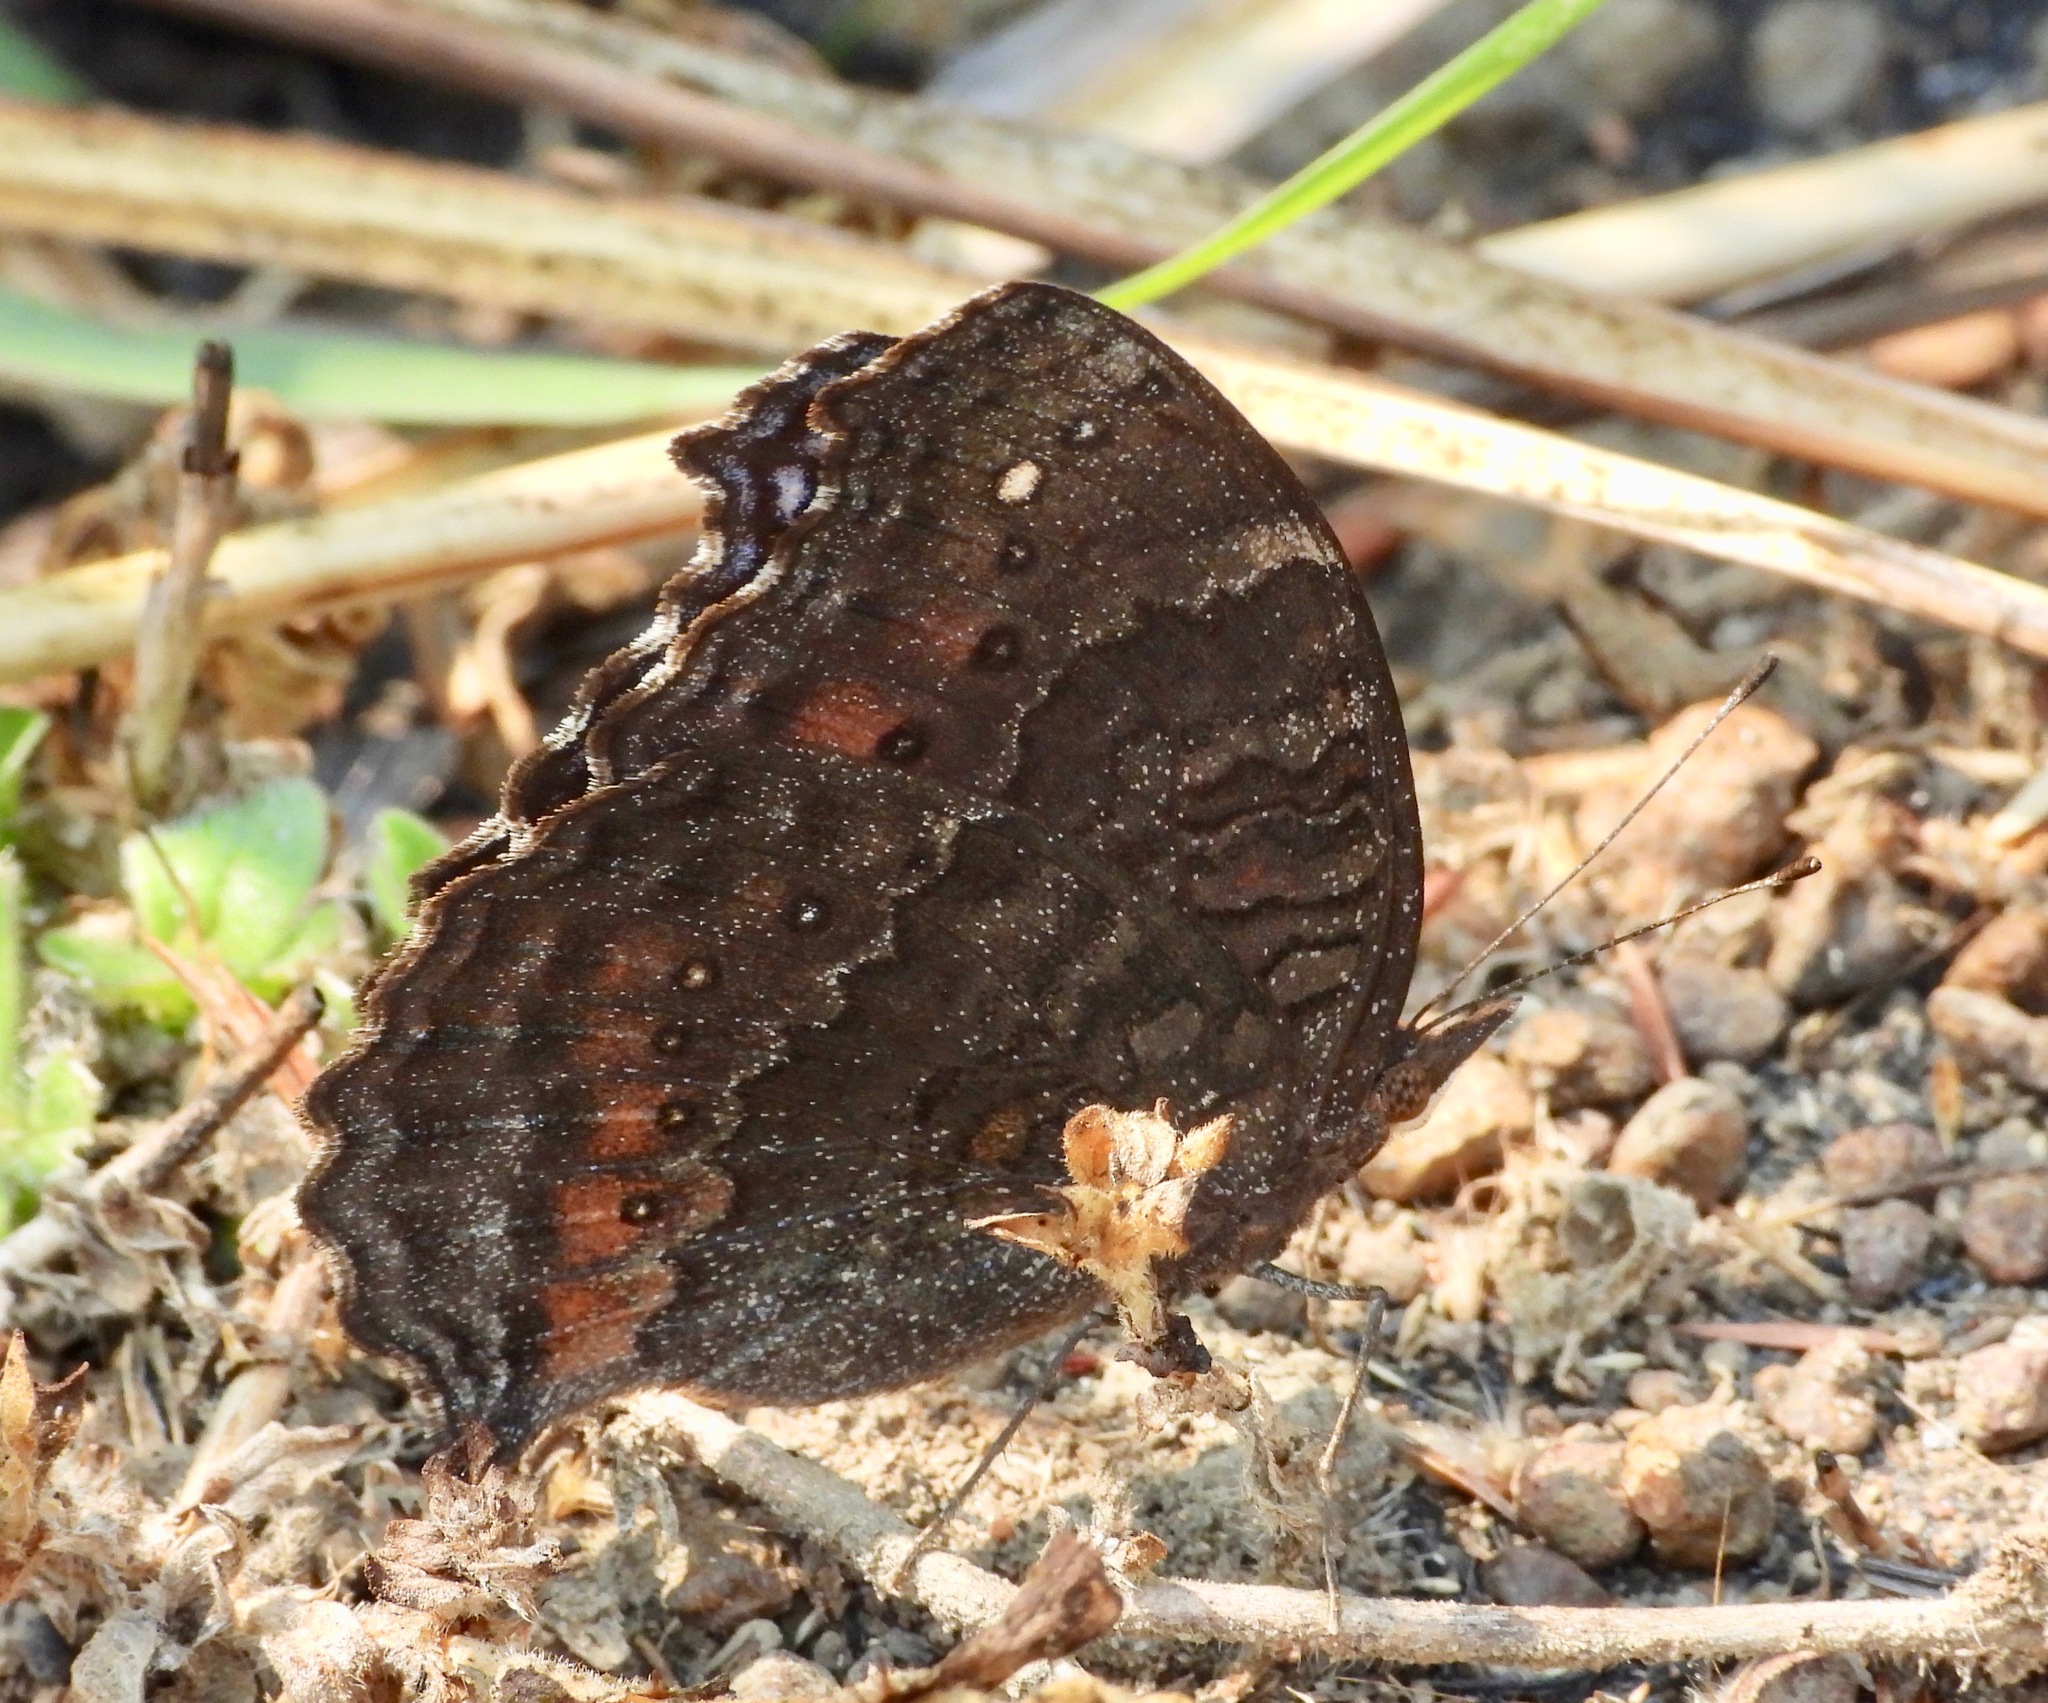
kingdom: Animalia
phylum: Arthropoda
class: Insecta
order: Lepidoptera
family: Nymphalidae
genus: Precis
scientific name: Precis octavia
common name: Gaudy commodore
